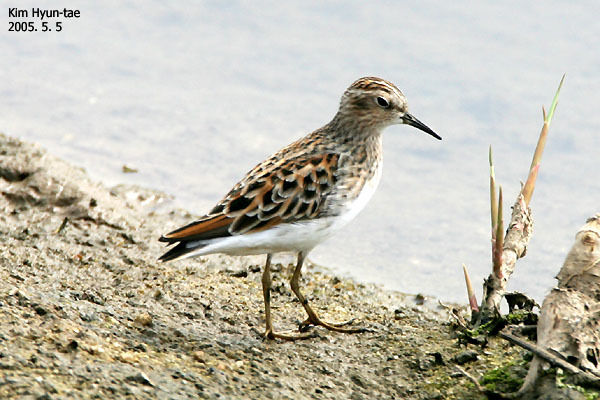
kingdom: Animalia
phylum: Chordata
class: Aves
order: Charadriiformes
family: Scolopacidae
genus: Calidris
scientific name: Calidris subminuta
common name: Long-toed stint
